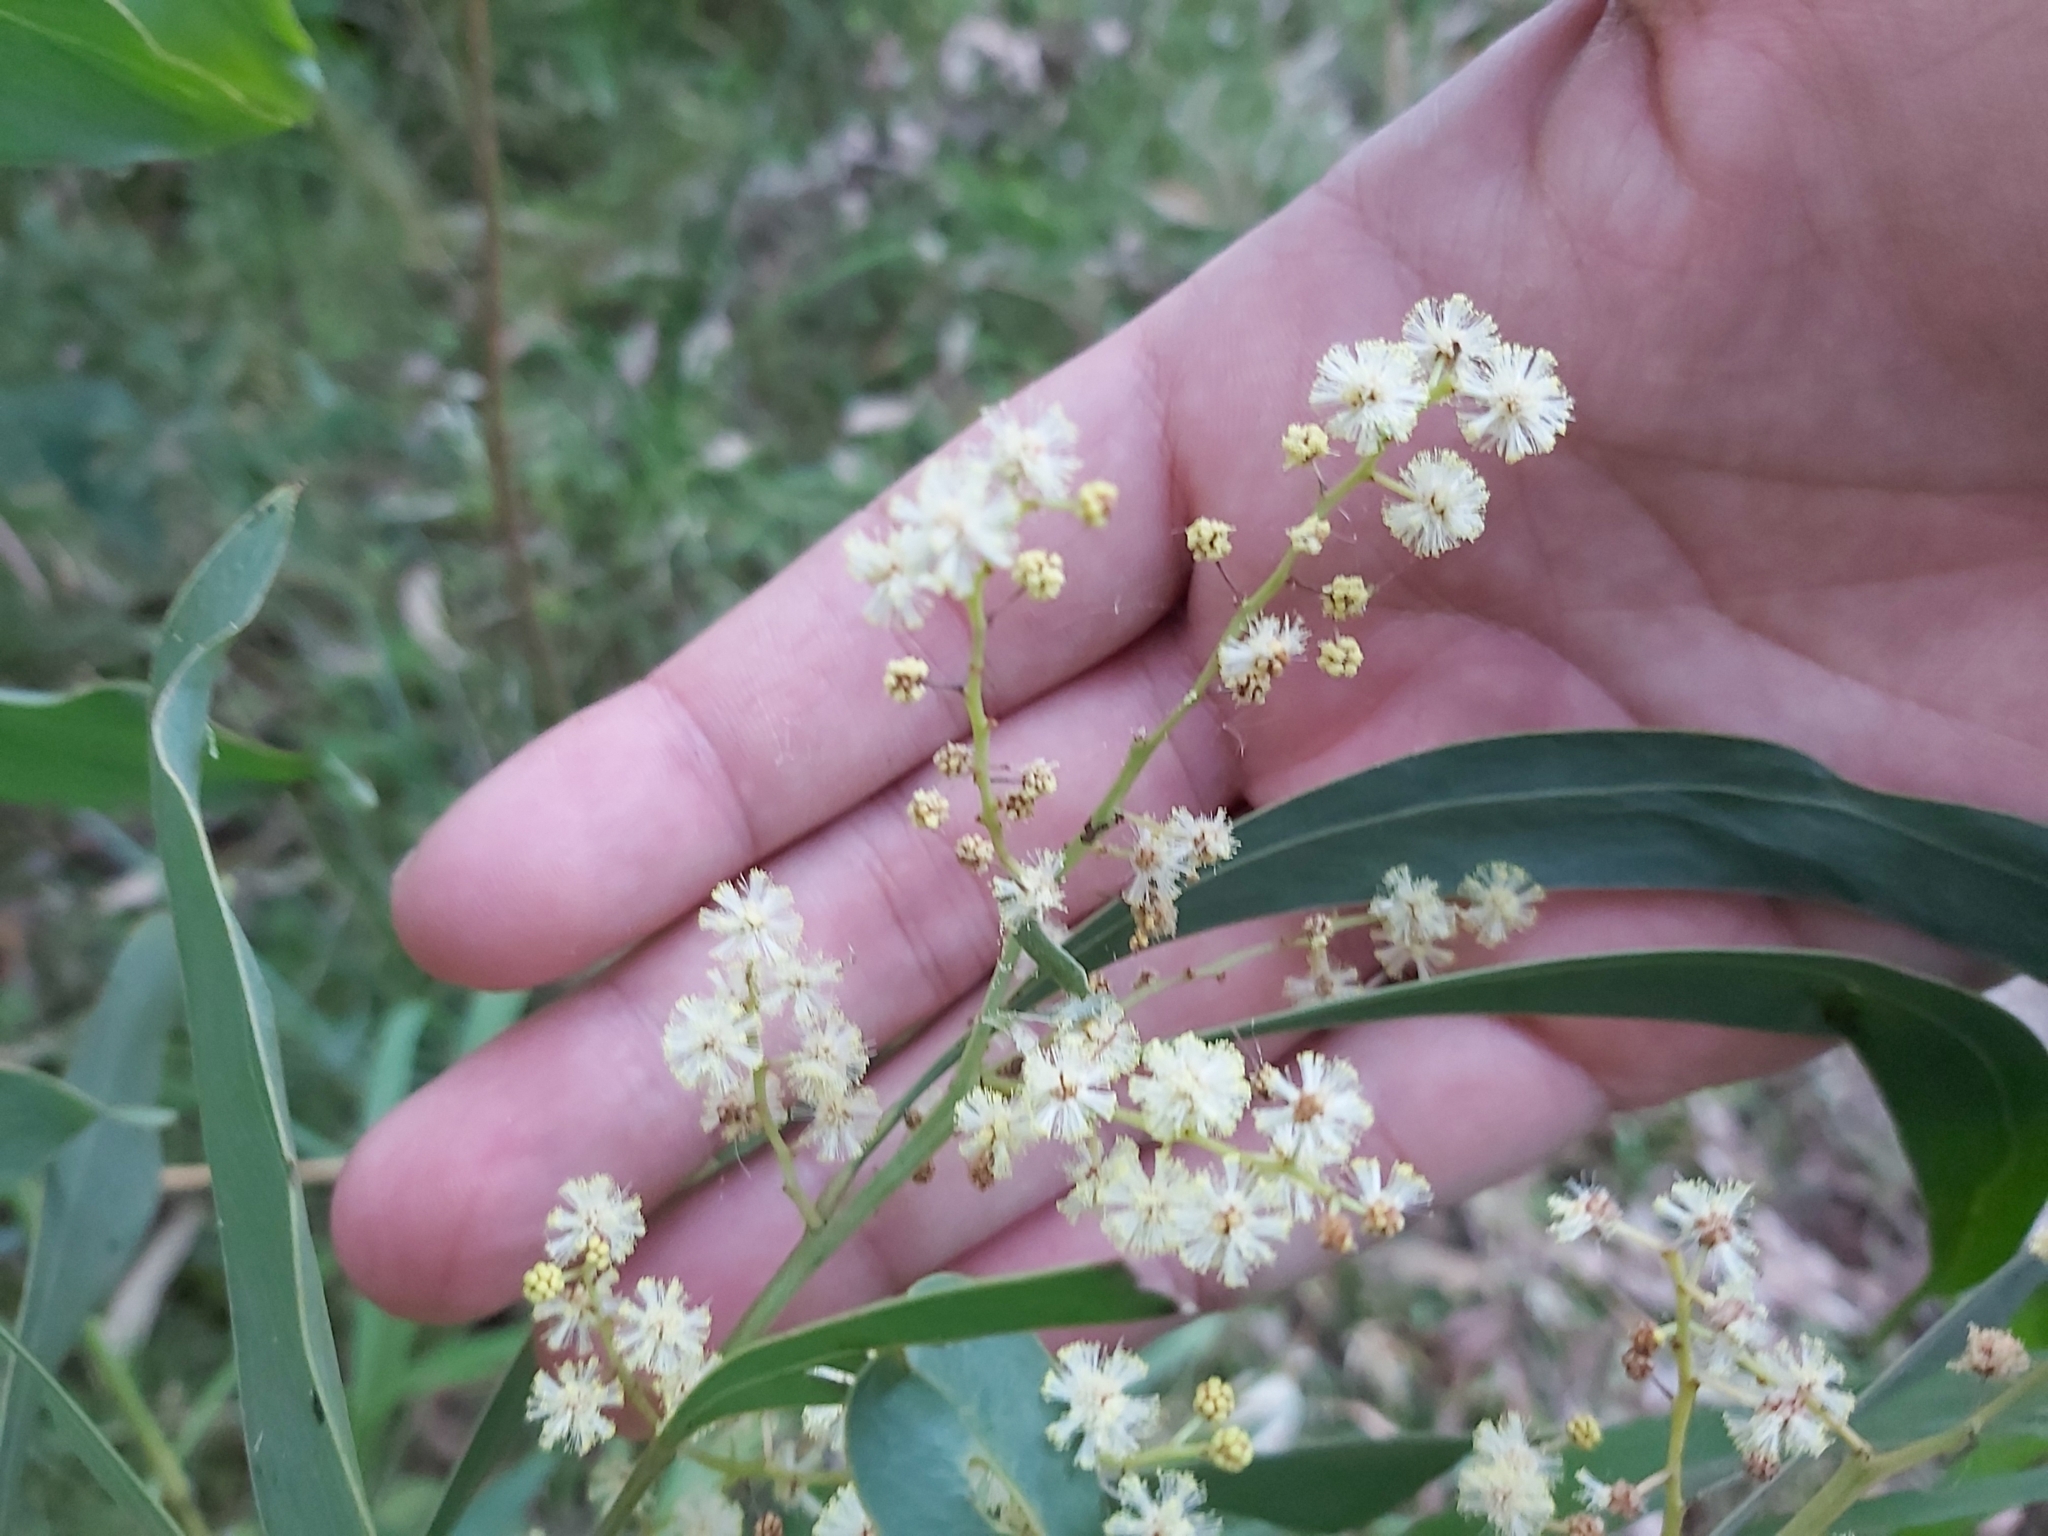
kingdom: Plantae
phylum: Tracheophyta
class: Magnoliopsida
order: Fabales
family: Fabaceae
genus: Acacia
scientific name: Acacia falcata
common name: Burra acacia
